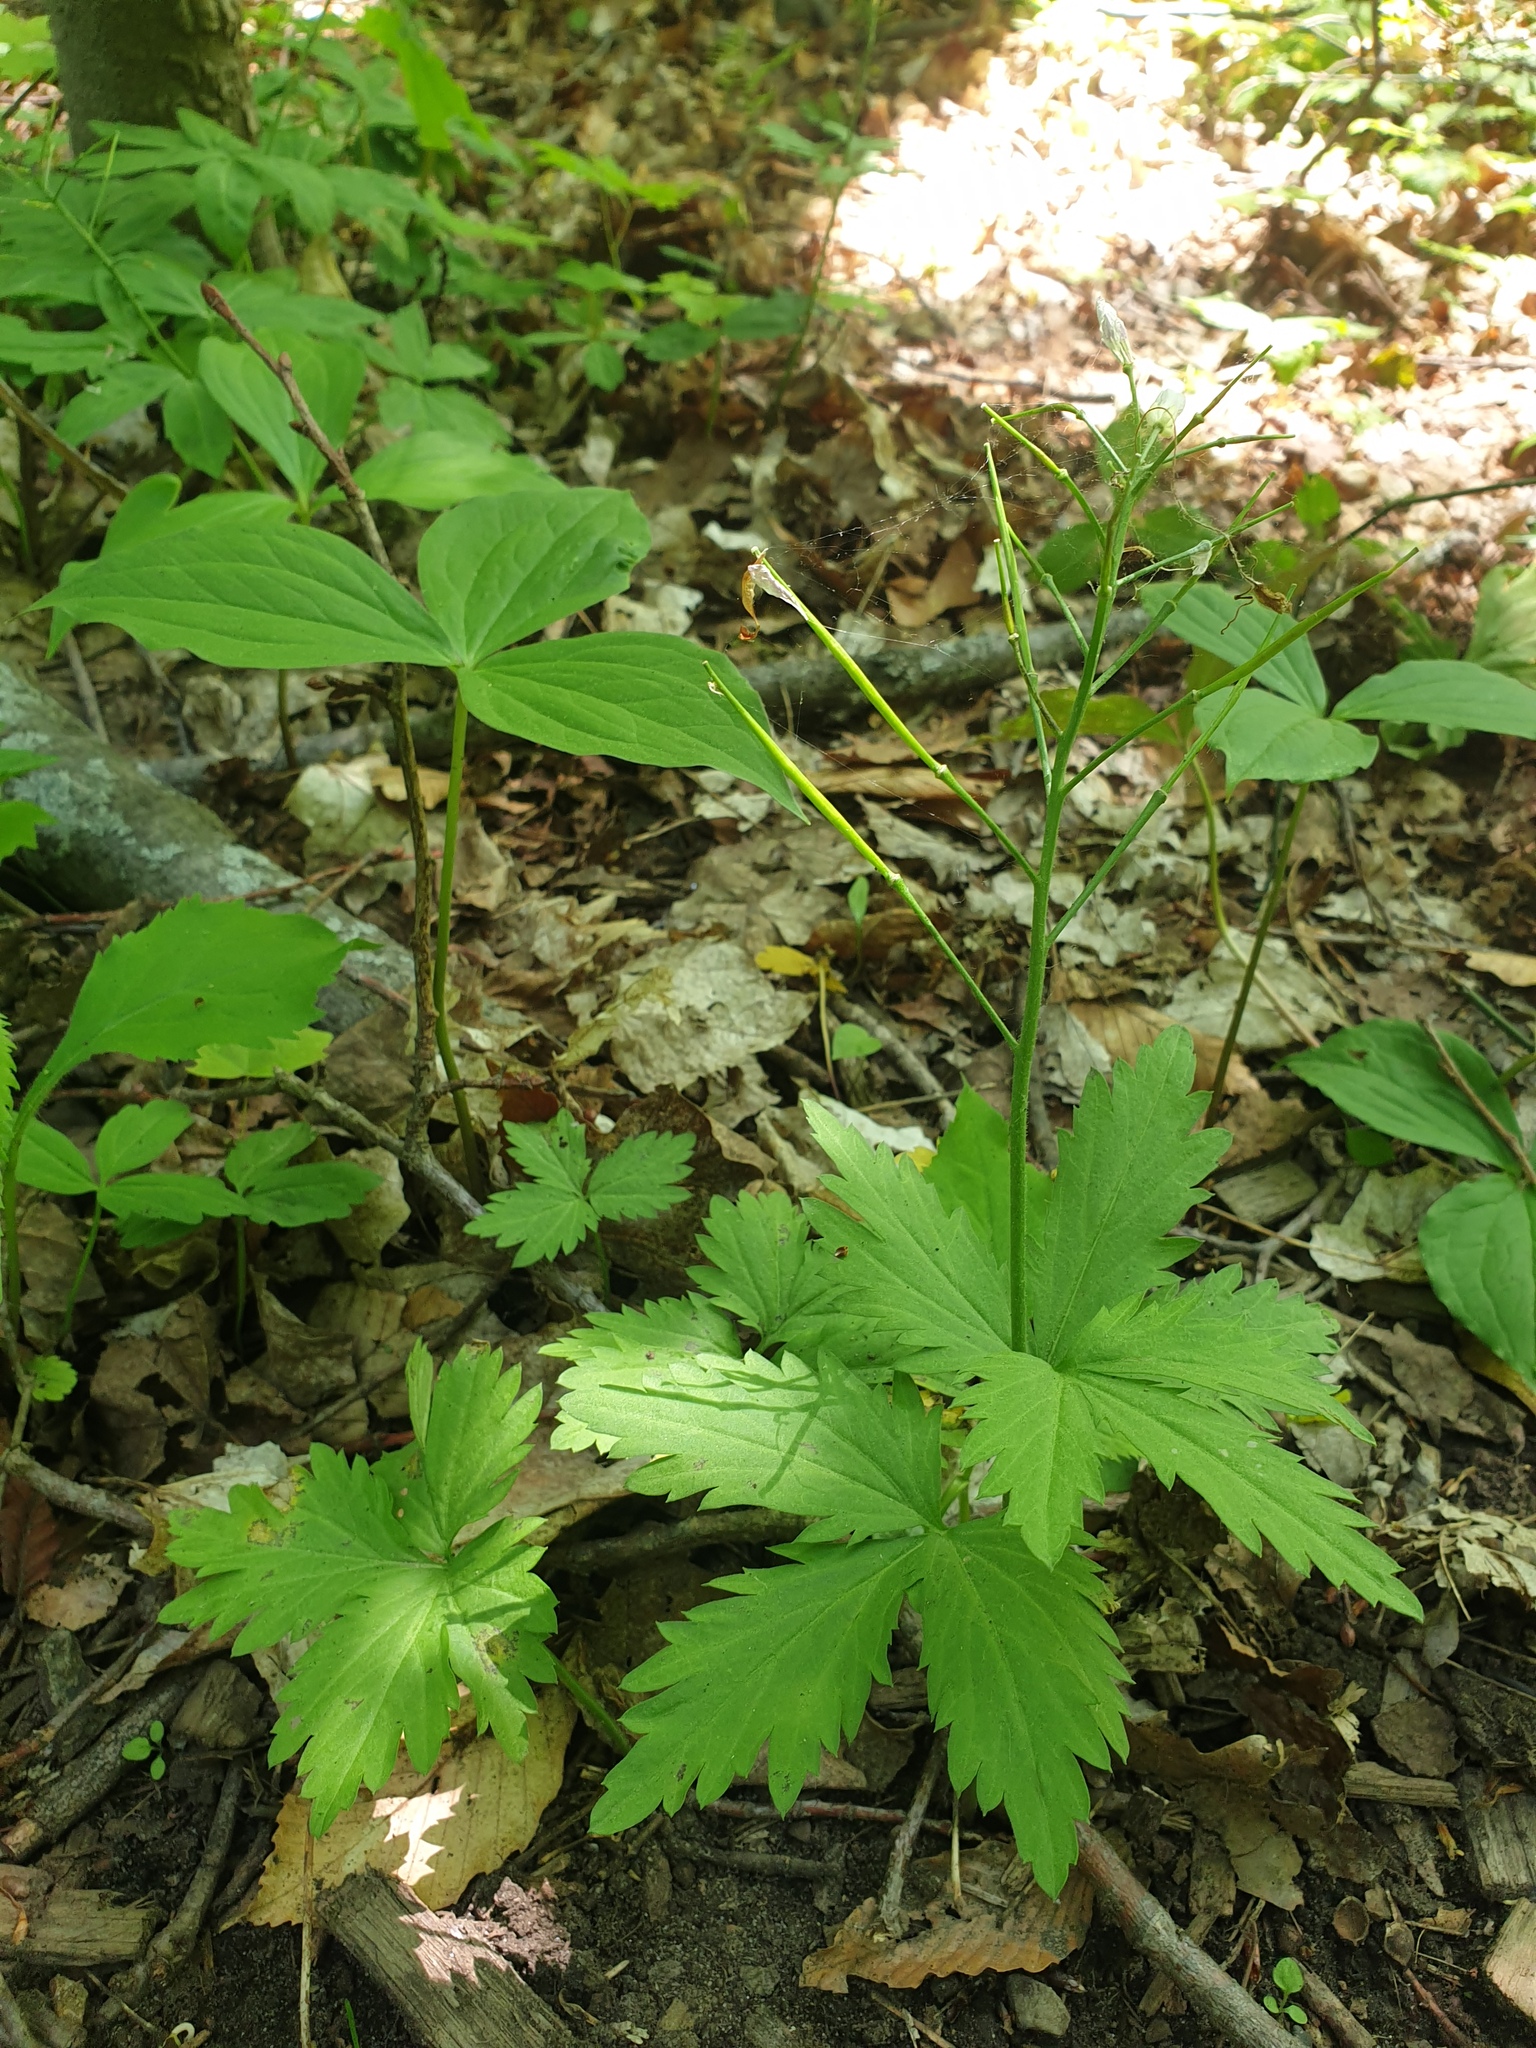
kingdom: Plantae
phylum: Tracheophyta
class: Magnoliopsida
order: Brassicales
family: Brassicaceae
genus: Cardamine
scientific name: Cardamine maxima
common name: Great bittercress
